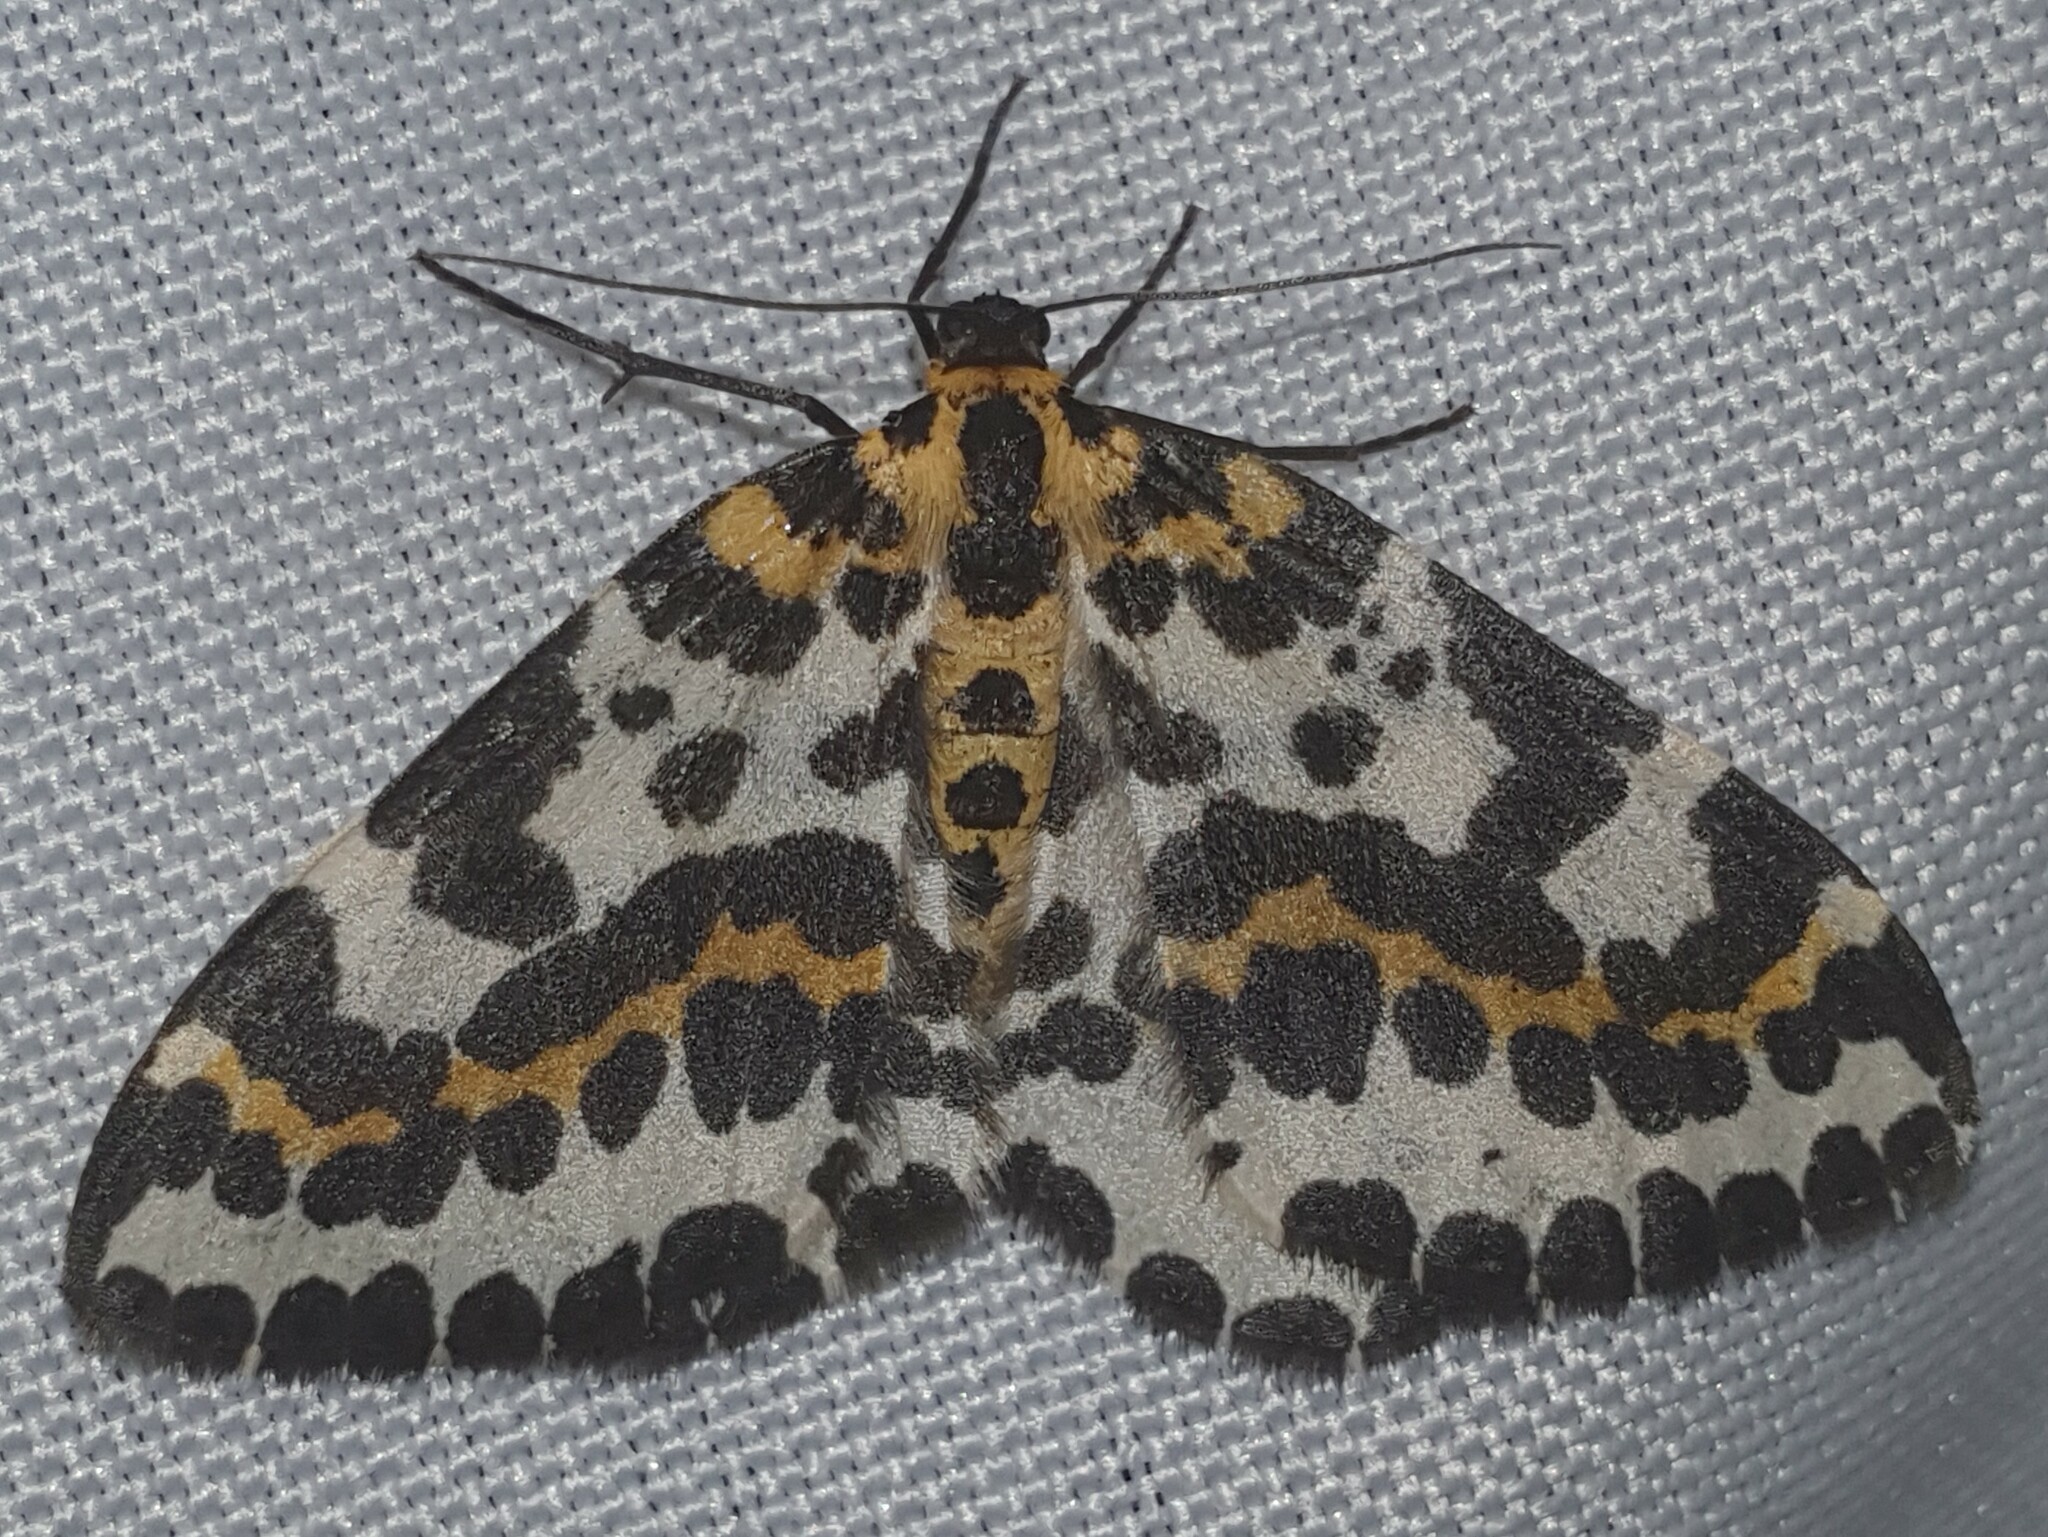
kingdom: Animalia
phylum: Arthropoda
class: Insecta
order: Lepidoptera
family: Geometridae
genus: Abraxas
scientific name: Abraxas grossulariata
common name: Magpie
